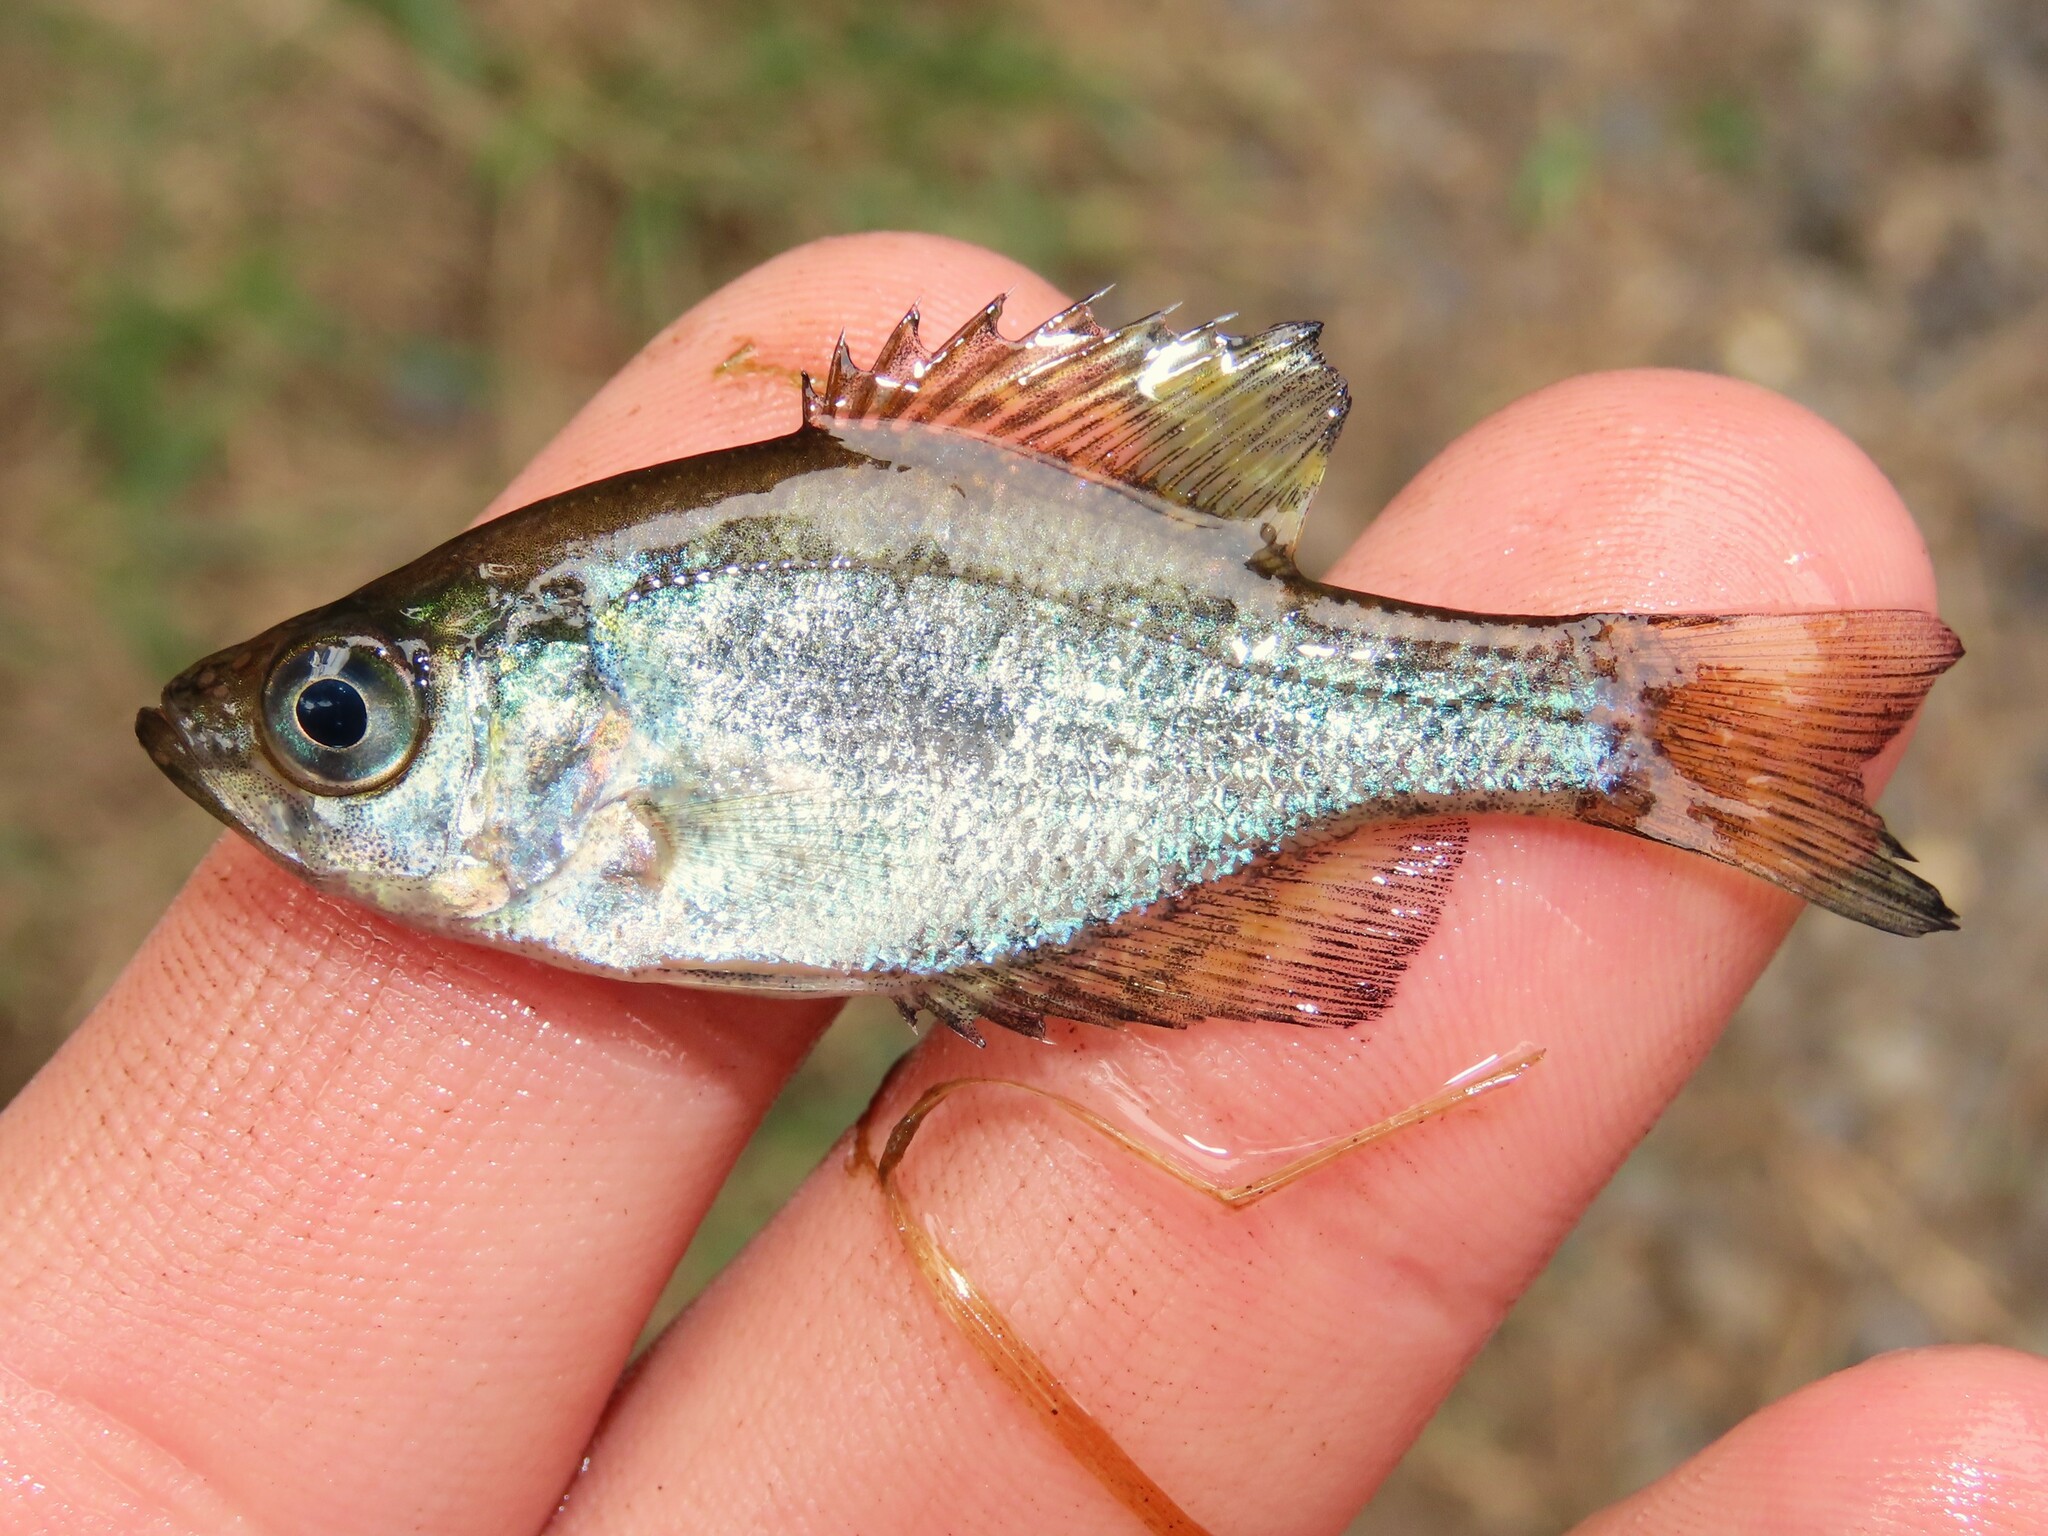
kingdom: Animalia
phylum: Chordata
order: Perciformes
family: Centrarchidae
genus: Pomoxis
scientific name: Pomoxis nigromaculatus
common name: Black crappie
